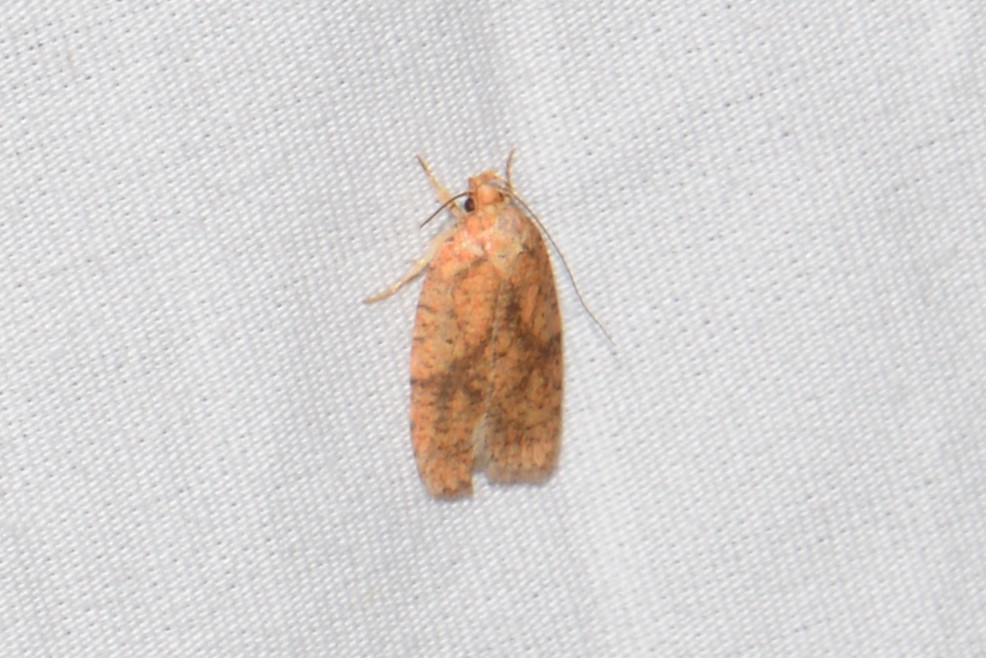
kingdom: Animalia
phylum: Arthropoda
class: Insecta
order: Lepidoptera
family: Depressariidae
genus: Agonopterix
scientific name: Agonopterix robiniella
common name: Four-dotted agonopterix moth
